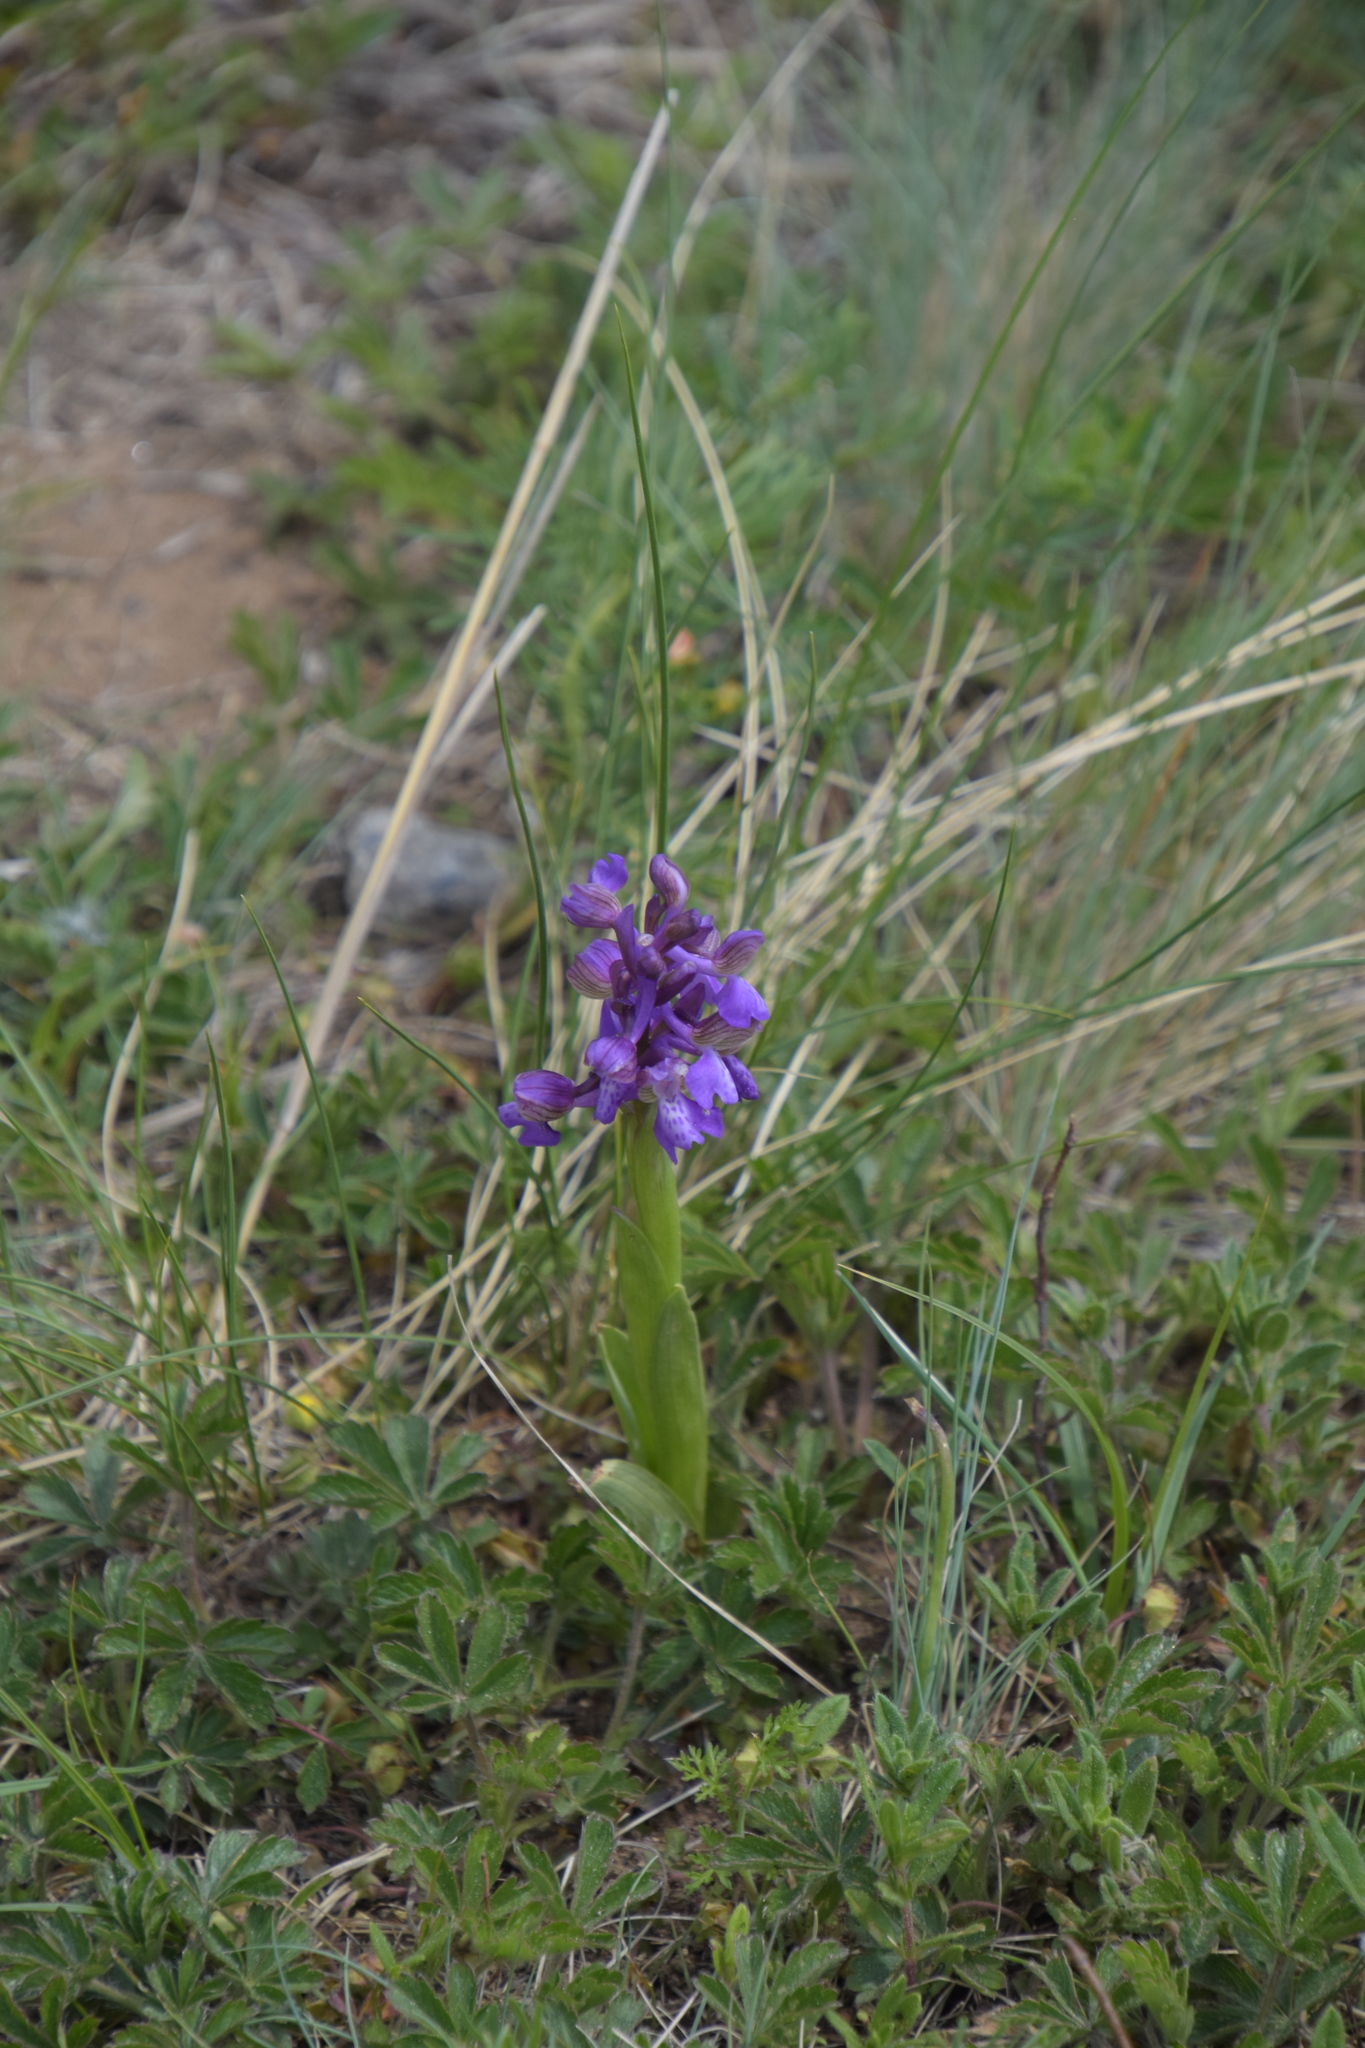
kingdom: Plantae
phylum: Tracheophyta
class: Liliopsida
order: Asparagales
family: Orchidaceae
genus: Anacamptis
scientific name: Anacamptis morio
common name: Green-winged orchid
